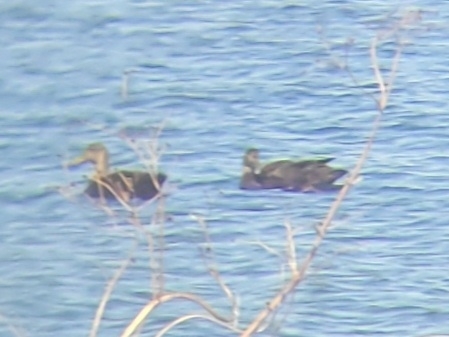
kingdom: Animalia
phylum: Chordata
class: Aves
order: Anseriformes
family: Anatidae
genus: Anas
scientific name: Anas rubripes
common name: American black duck
